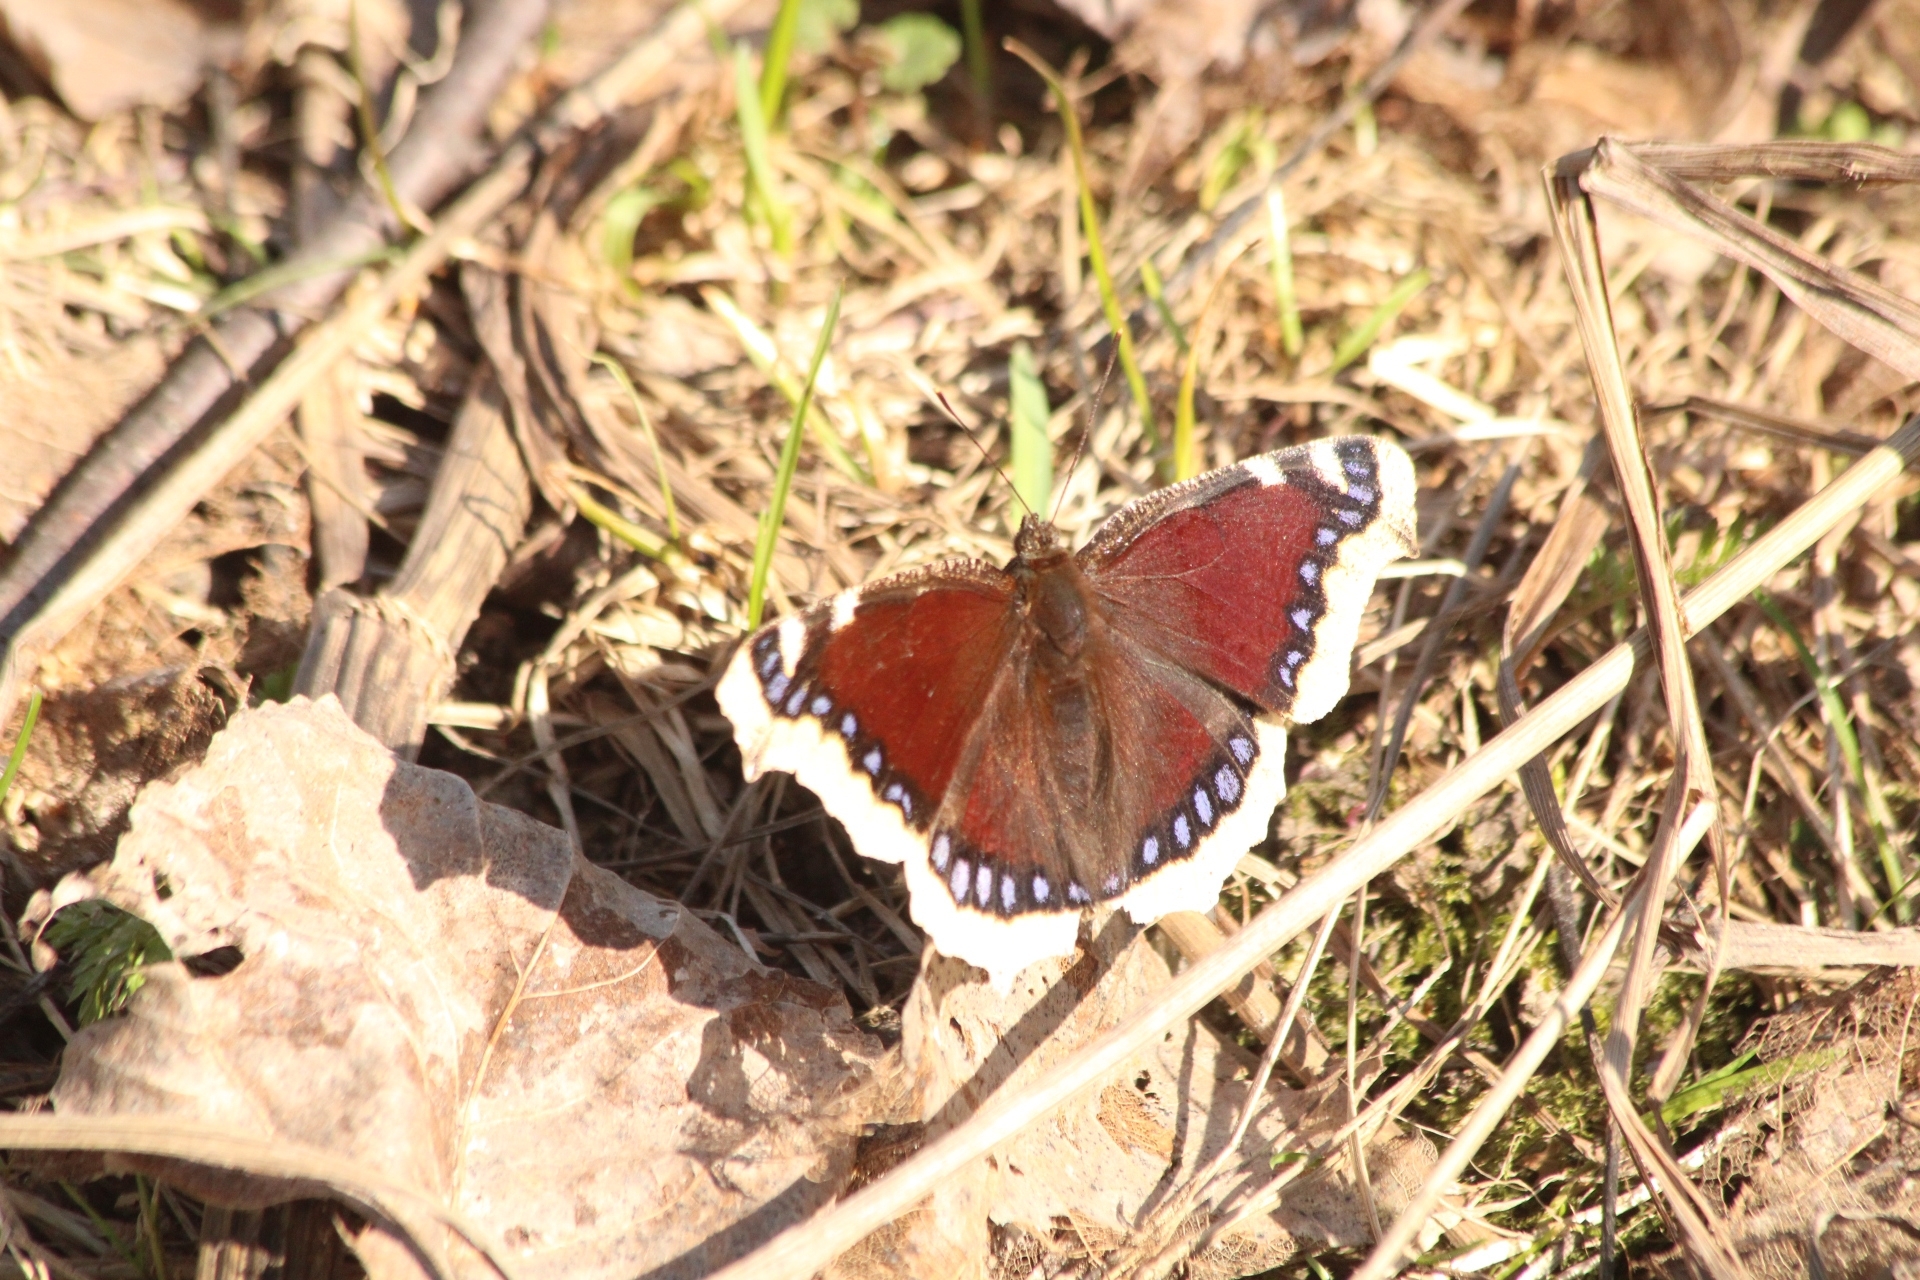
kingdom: Animalia
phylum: Arthropoda
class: Insecta
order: Lepidoptera
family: Nymphalidae
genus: Nymphalis
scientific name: Nymphalis antiopa
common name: Camberwell beauty
